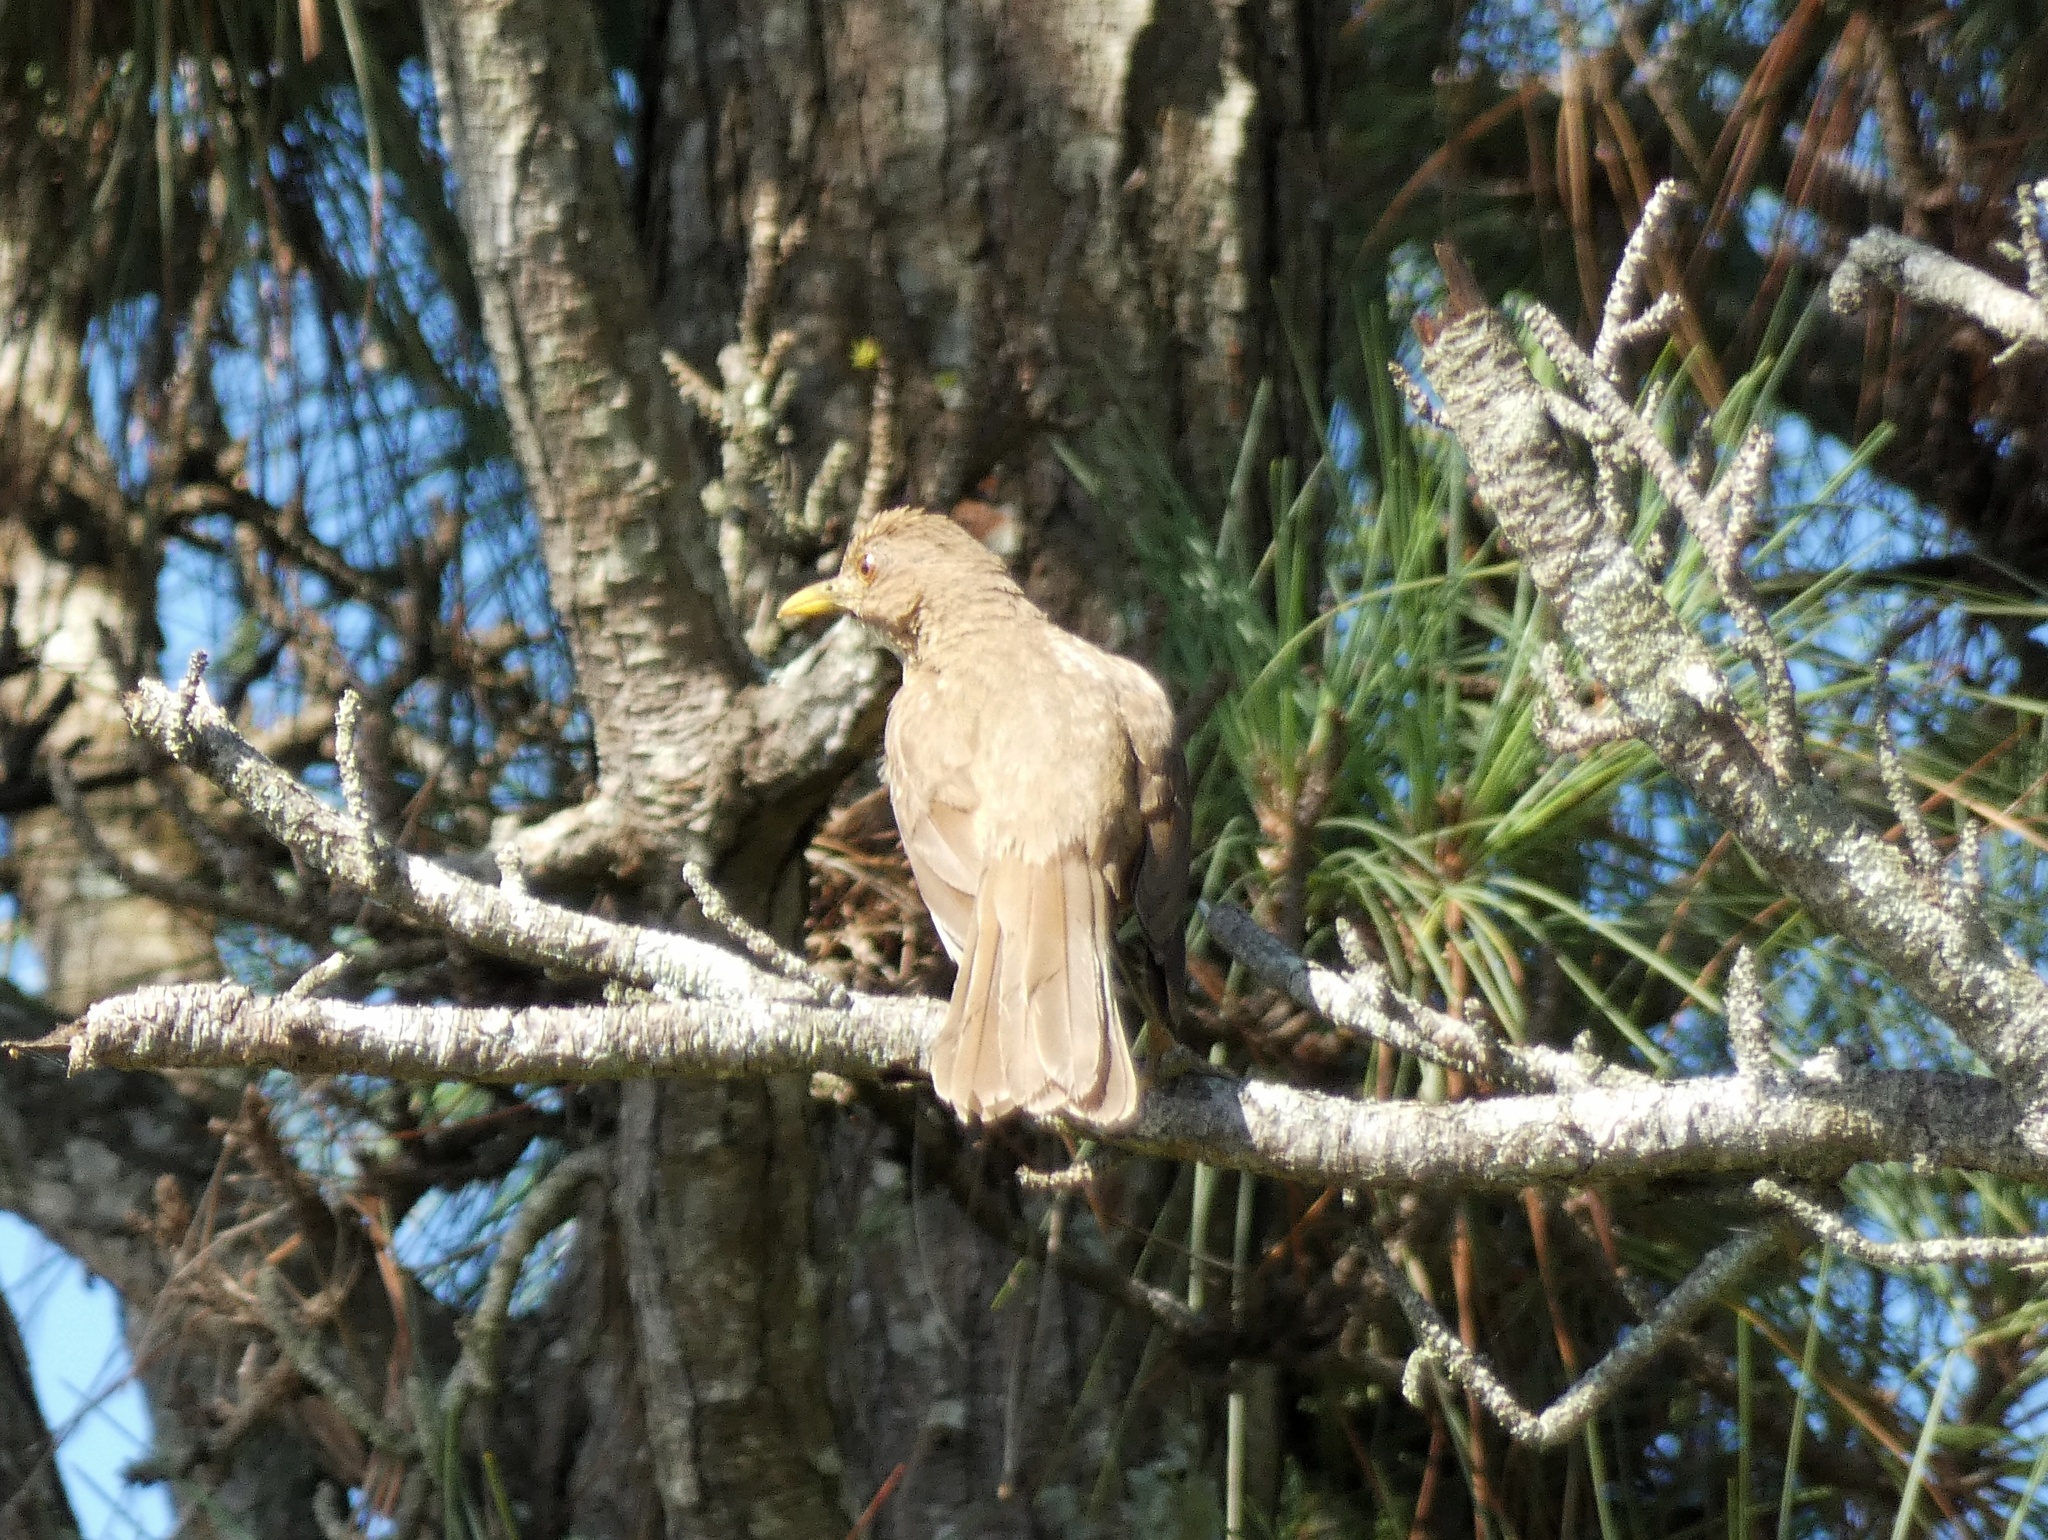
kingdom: Animalia
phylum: Chordata
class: Aves
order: Passeriformes
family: Turdidae
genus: Turdus
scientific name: Turdus grayi
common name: Clay-colored thrush
